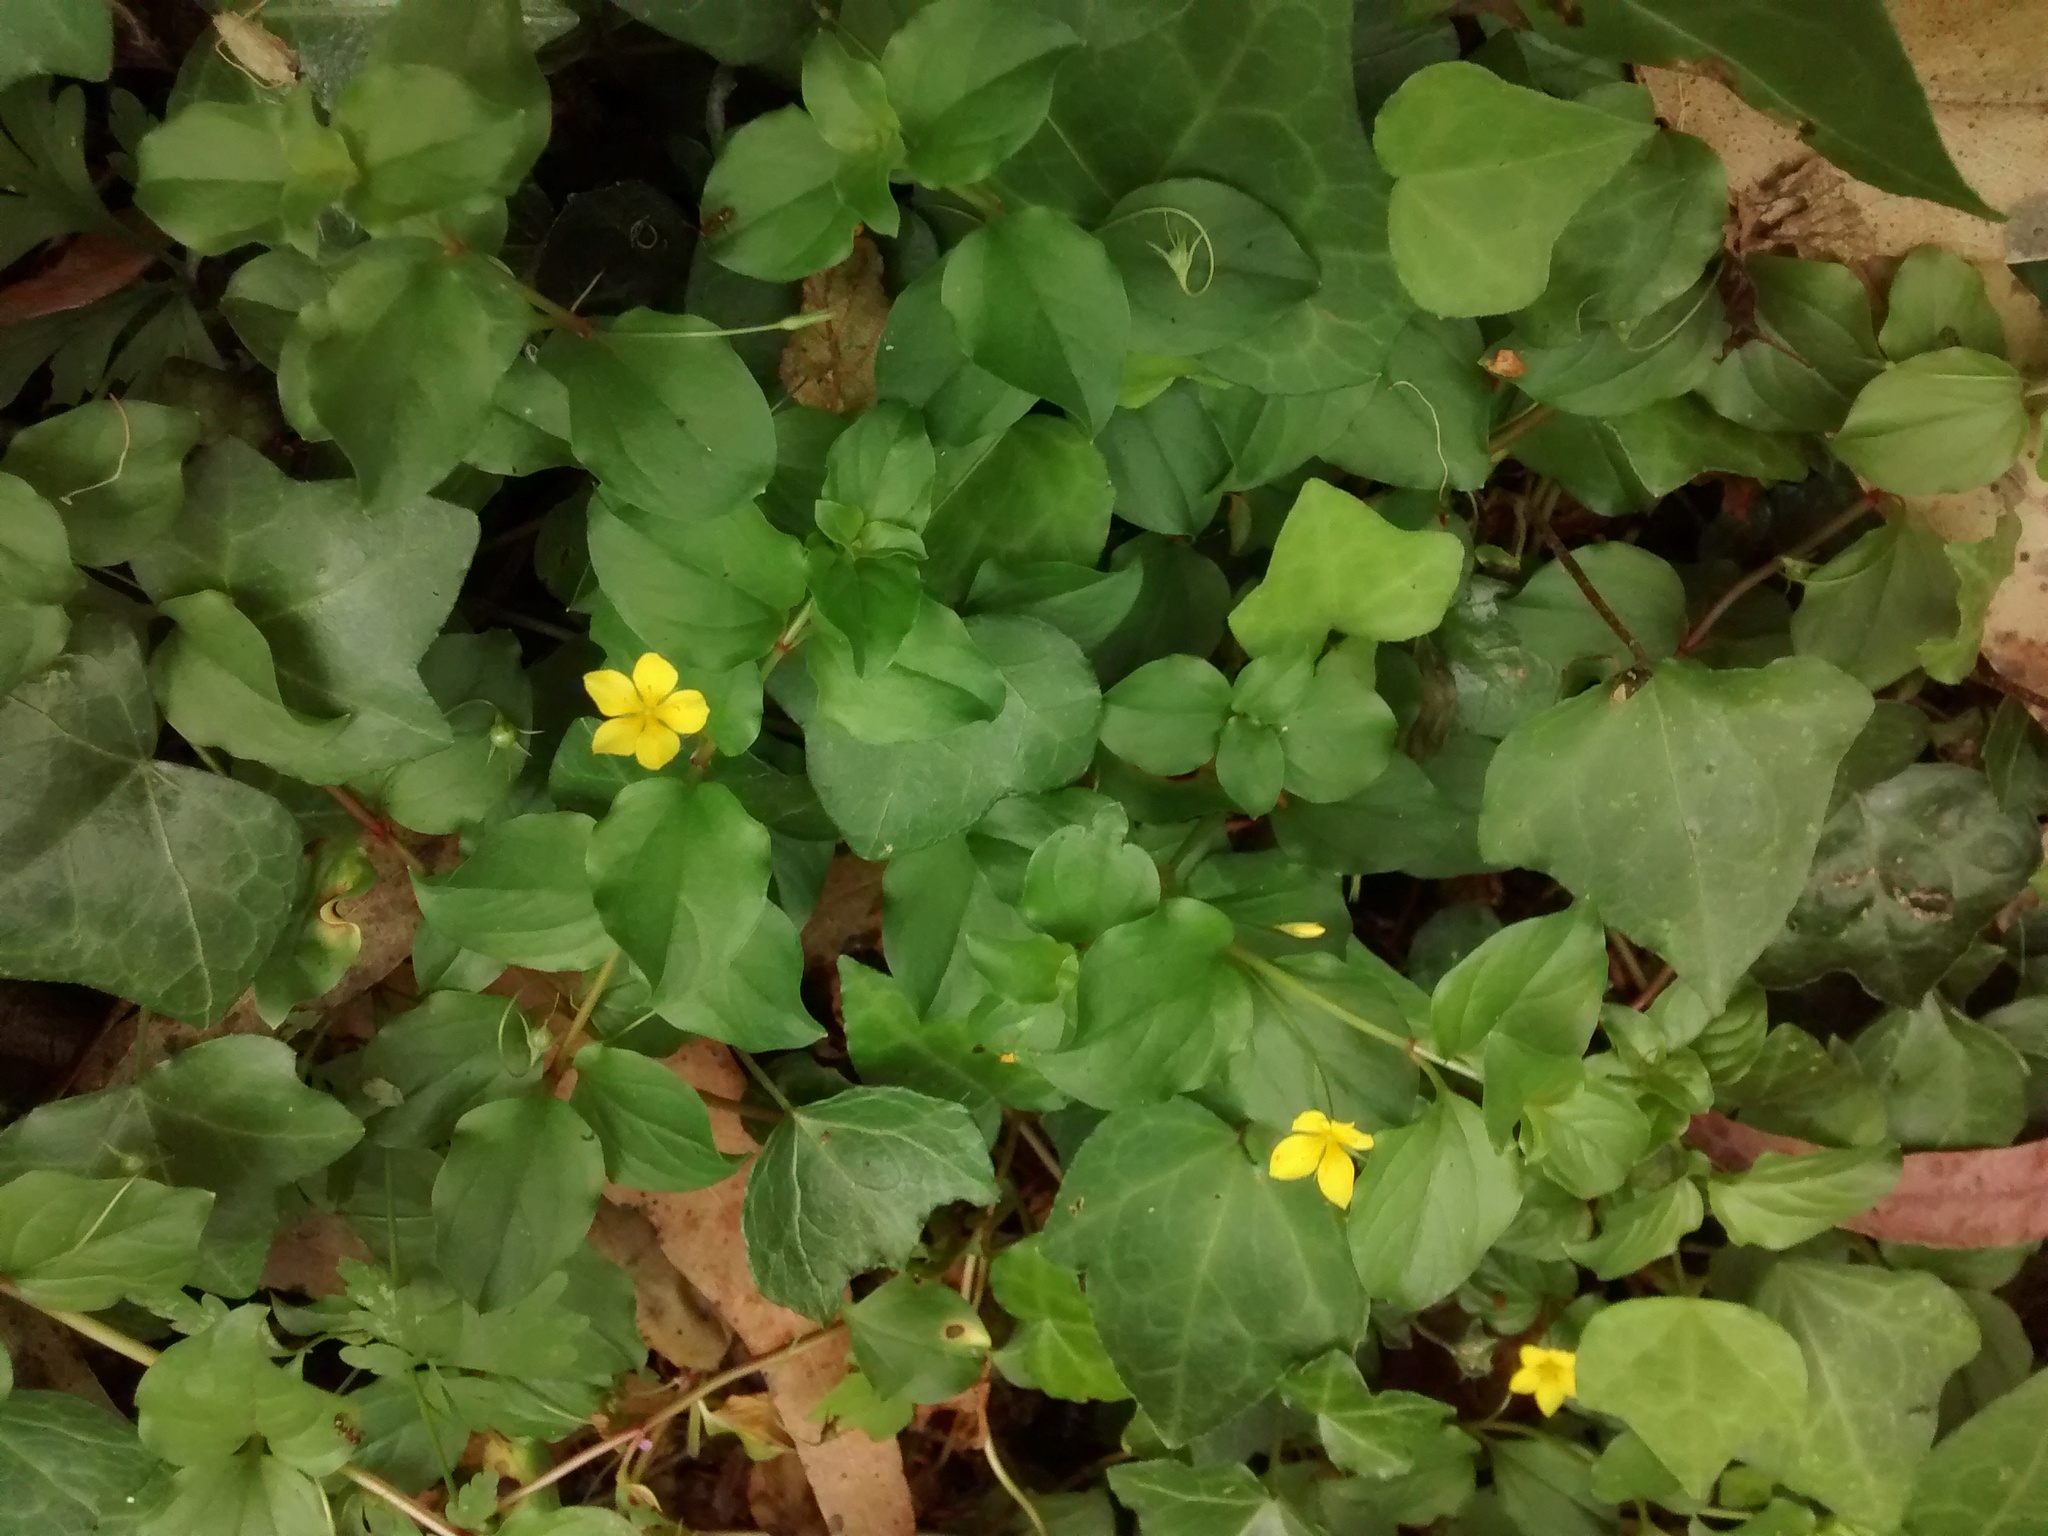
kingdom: Plantae
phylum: Tracheophyta
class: Magnoliopsida
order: Ericales
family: Primulaceae
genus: Lysimachia
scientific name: Lysimachia nemorum
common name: Yellow pimpernel
